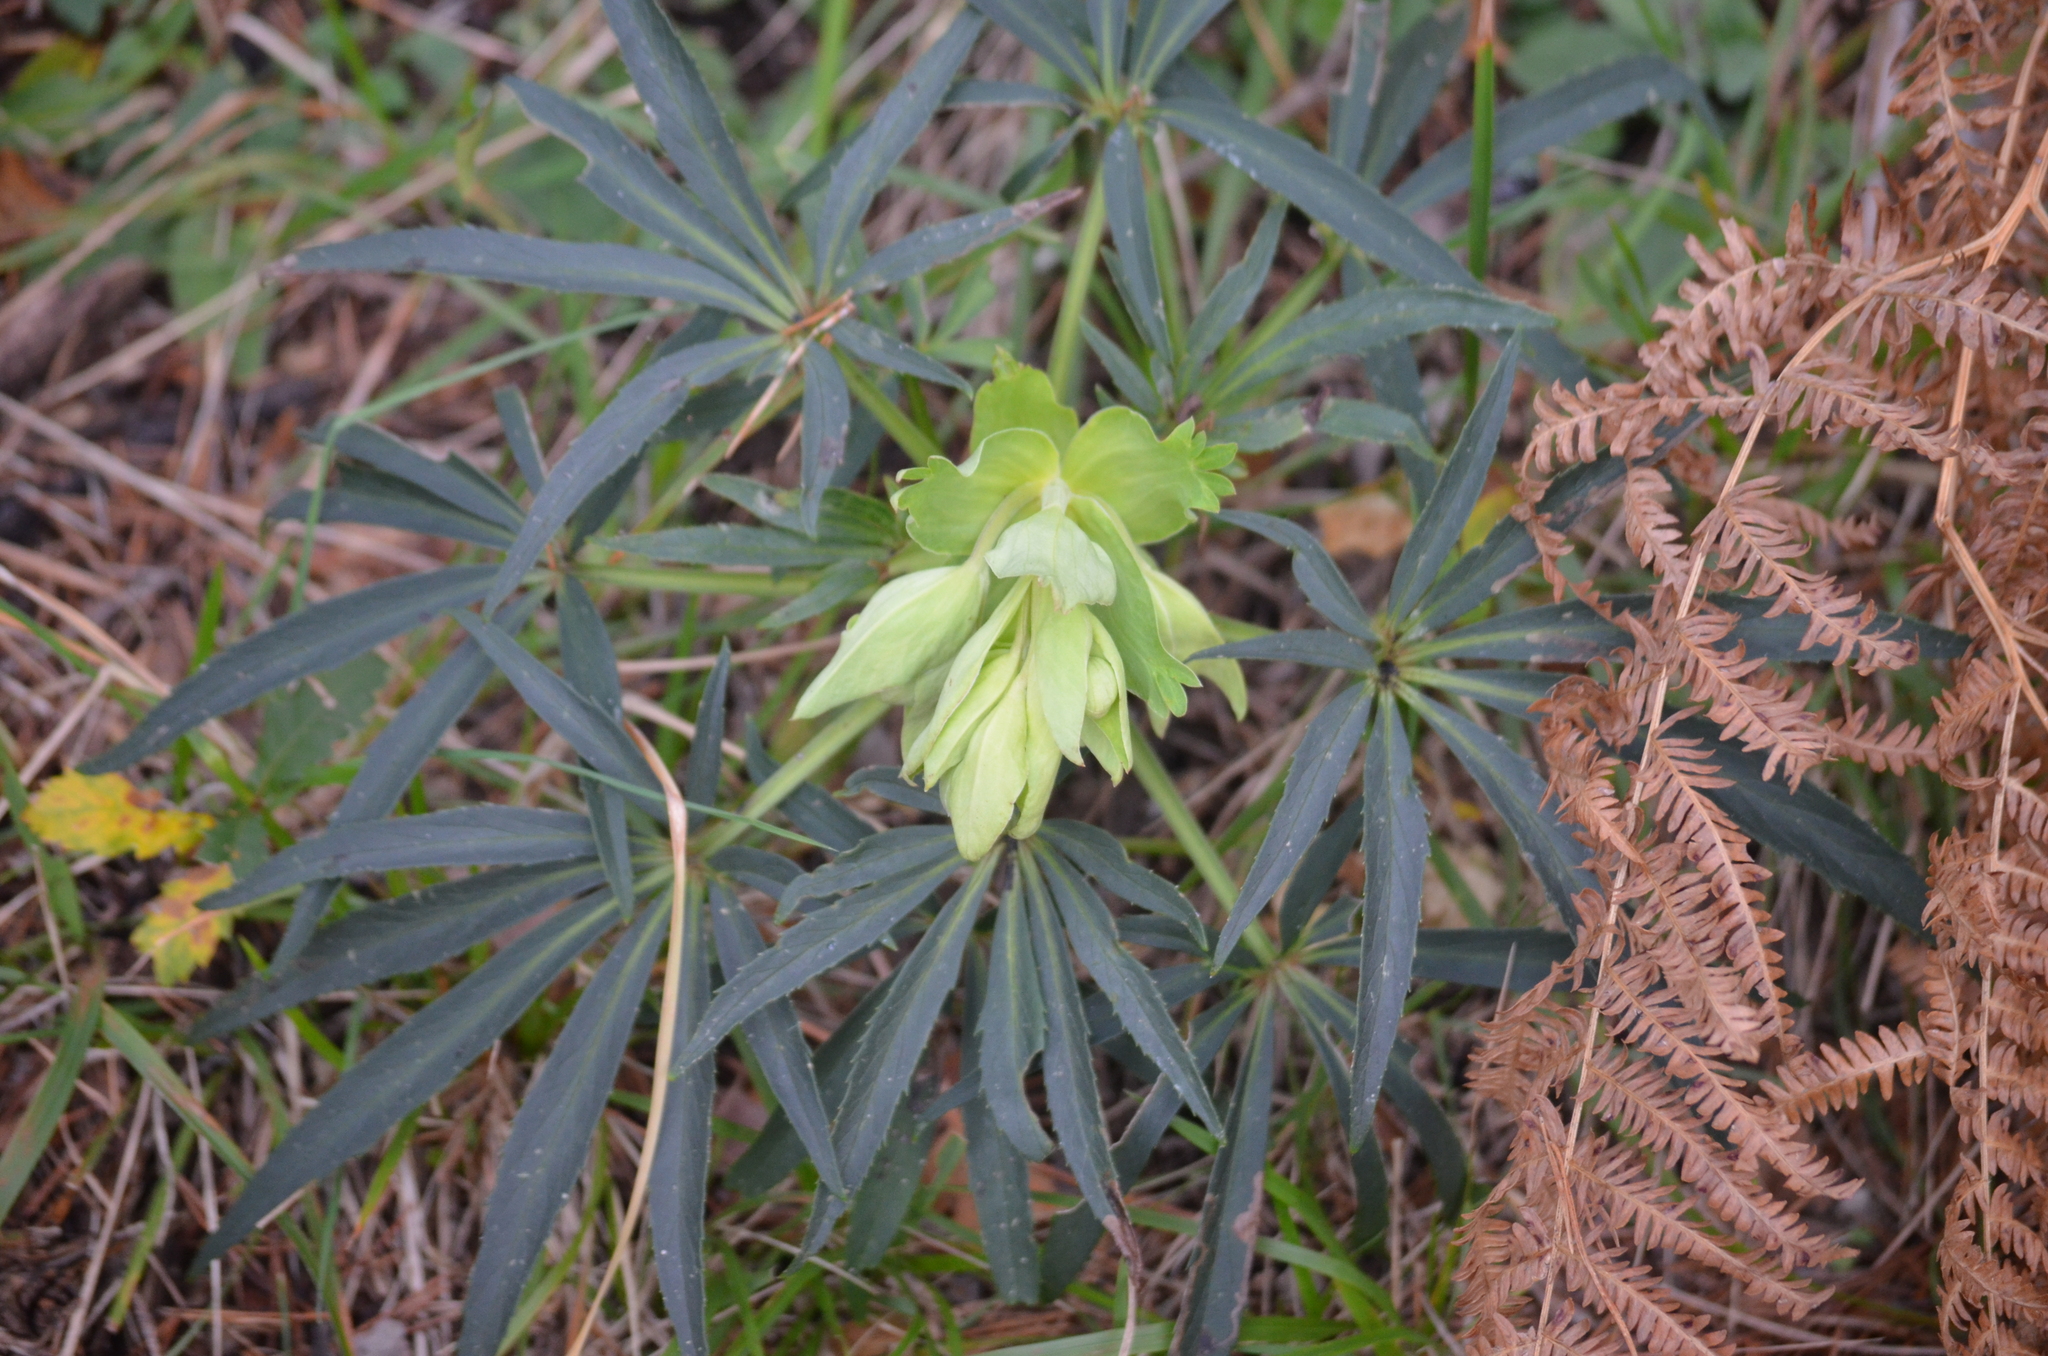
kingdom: Plantae
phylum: Tracheophyta
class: Magnoliopsida
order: Ranunculales
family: Ranunculaceae
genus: Helleborus
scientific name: Helleborus foetidus
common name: Stinking hellebore
